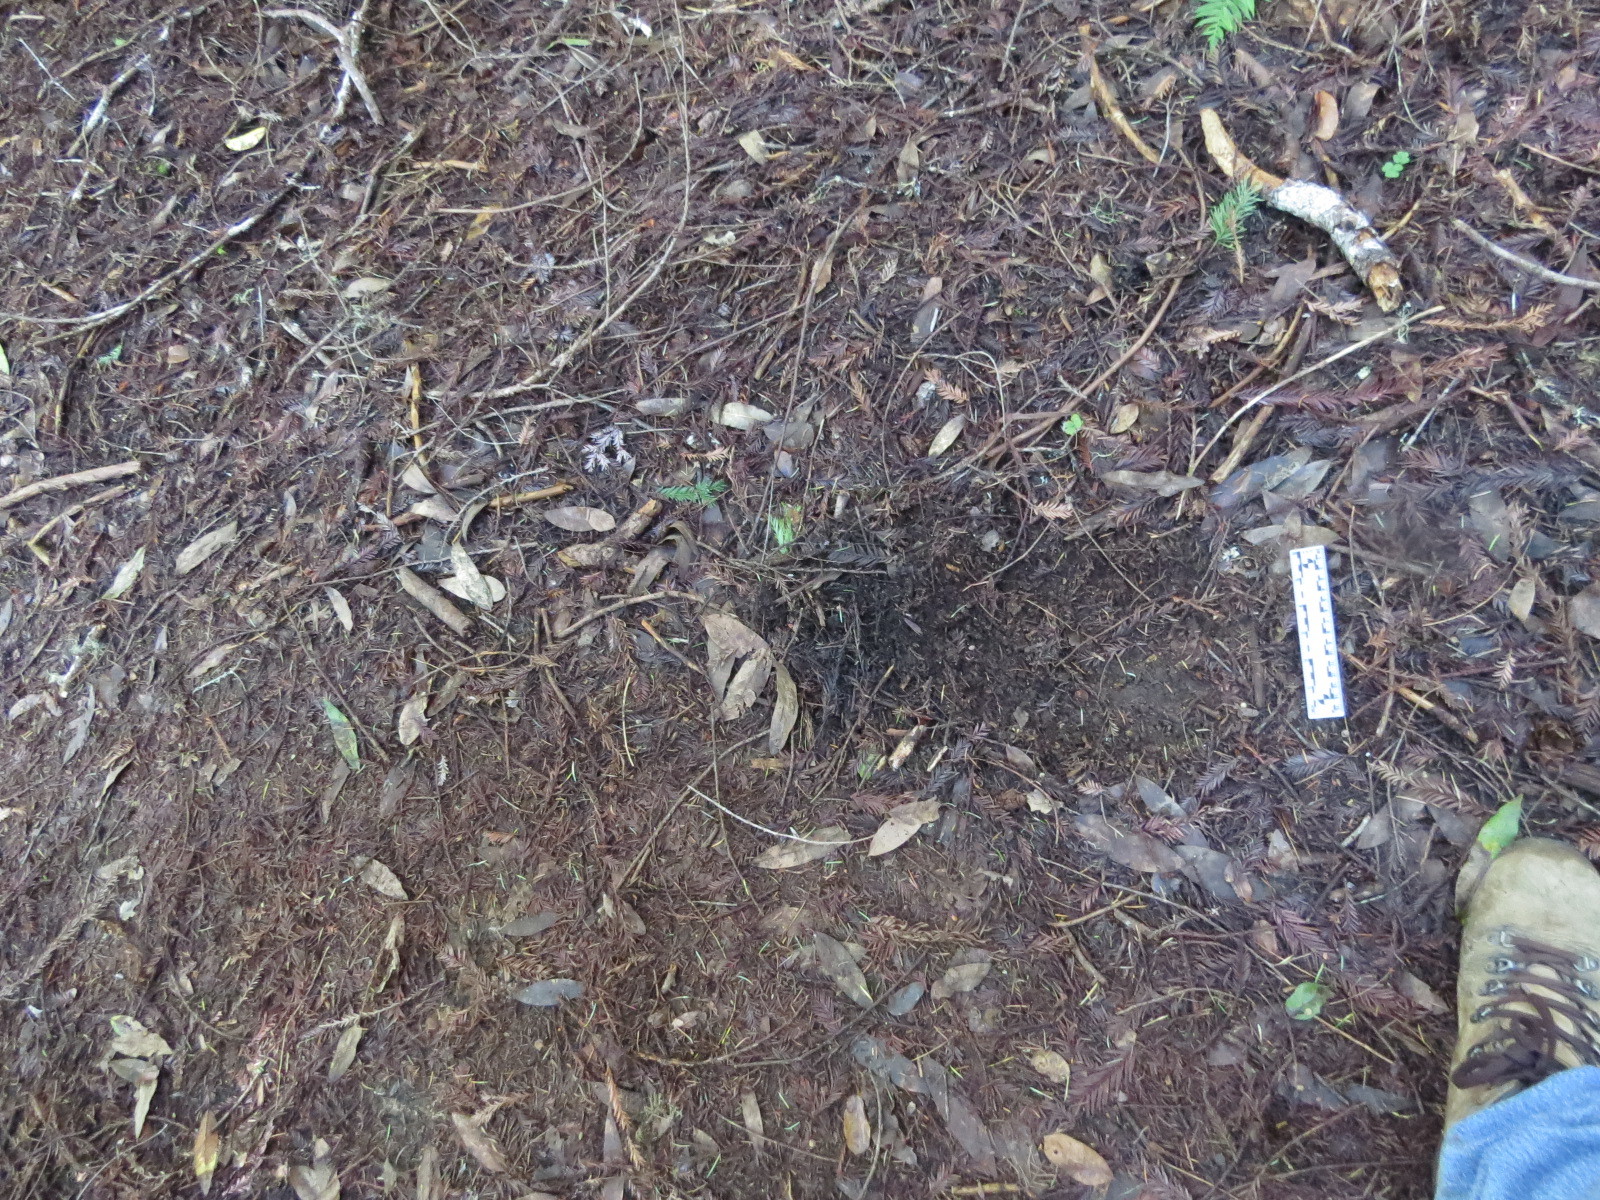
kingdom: Animalia
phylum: Chordata
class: Mammalia
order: Carnivora
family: Felidae
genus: Puma
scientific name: Puma concolor
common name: Puma
